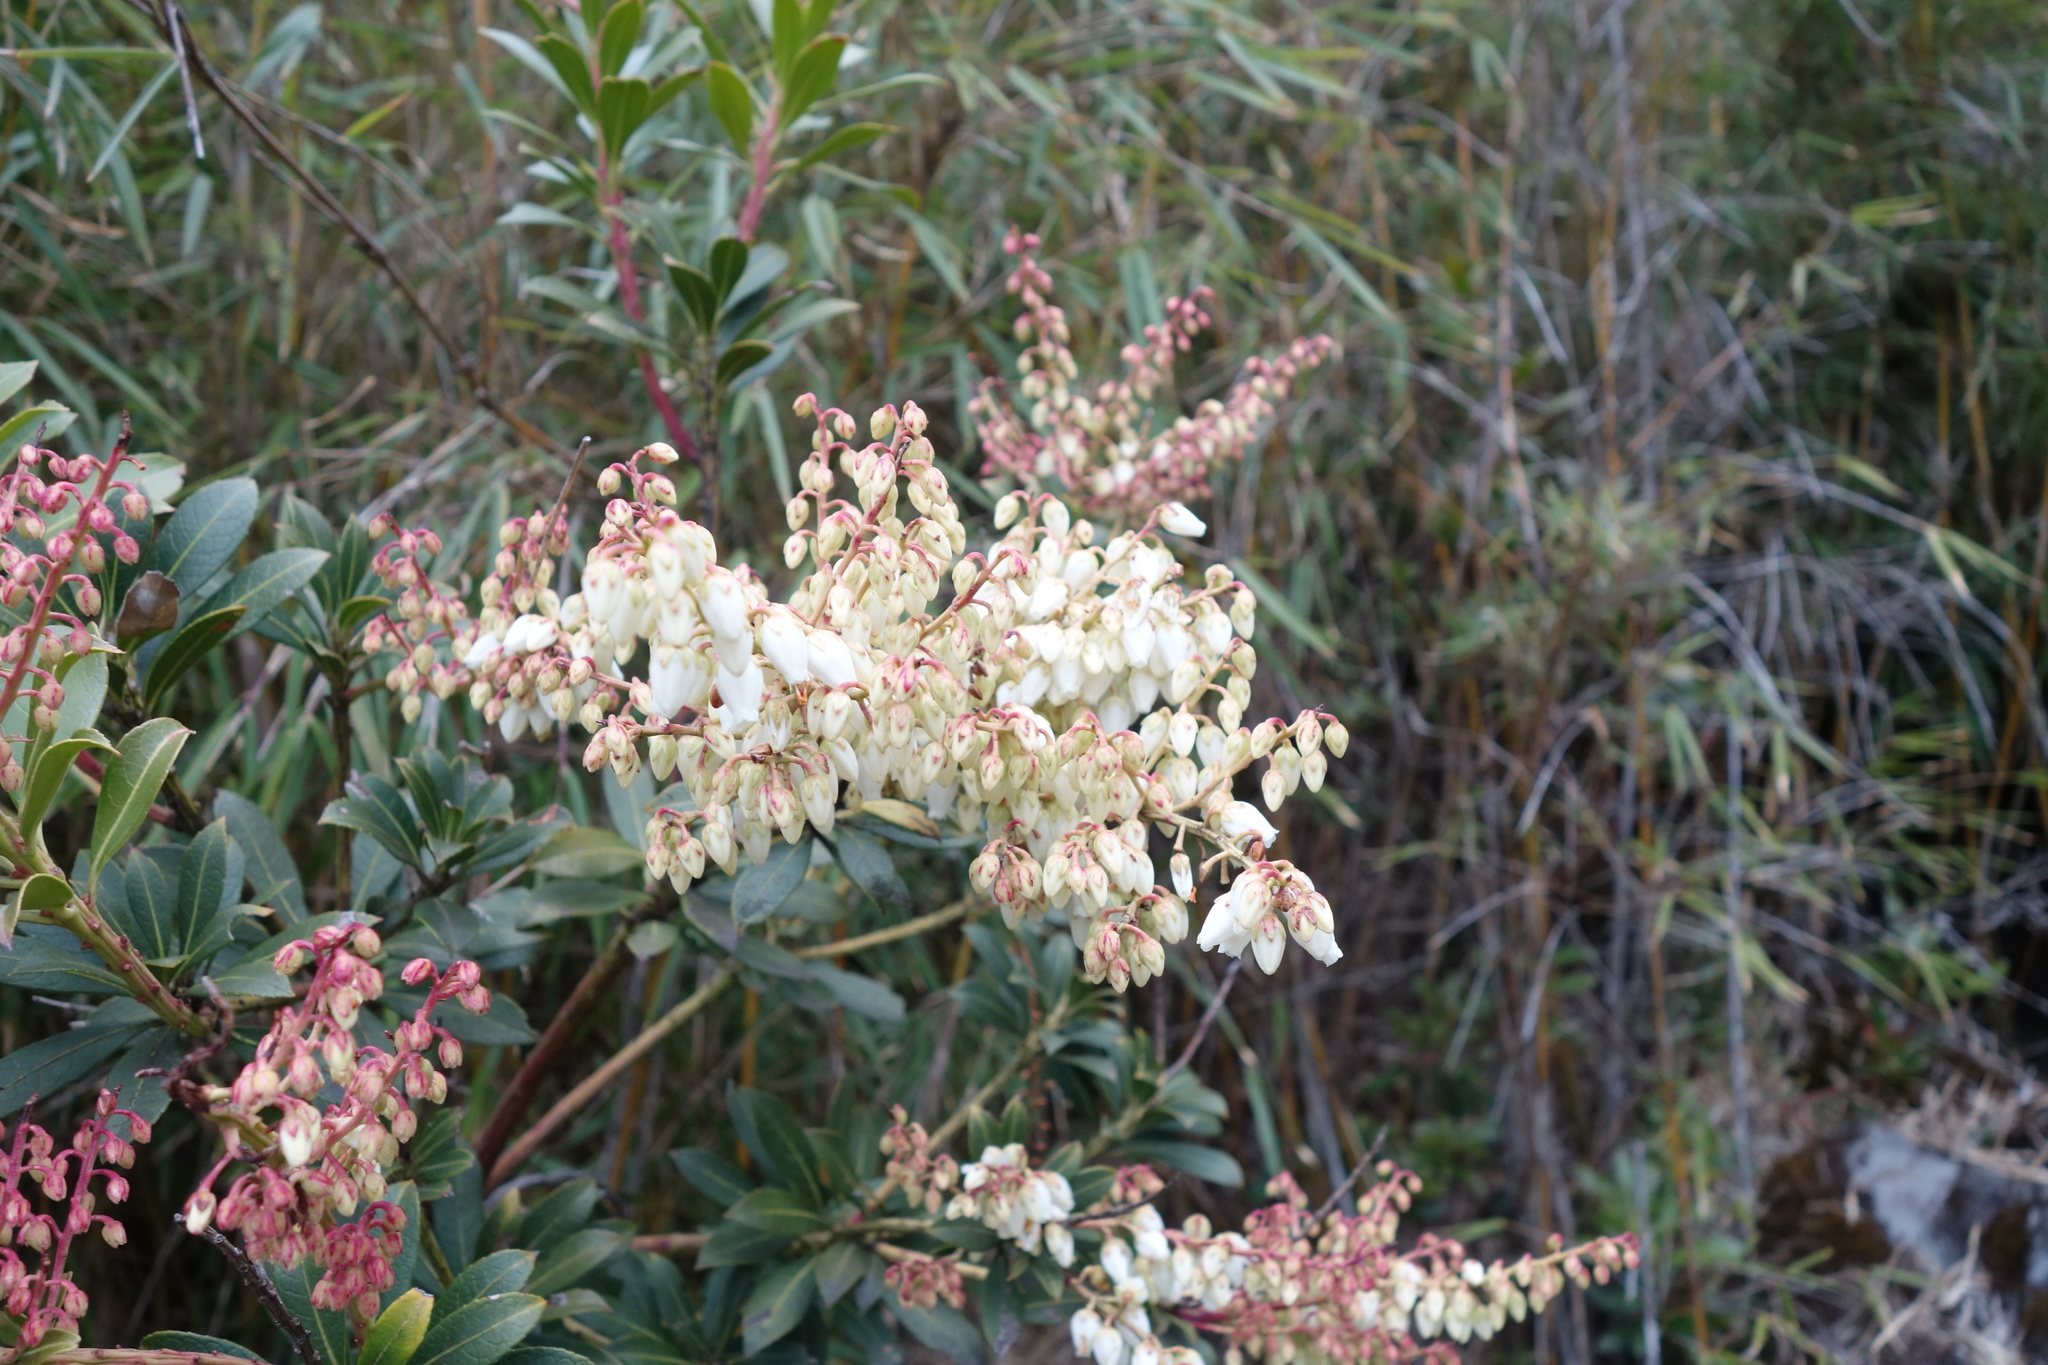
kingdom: Plantae
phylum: Tracheophyta
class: Magnoliopsida
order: Ericales
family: Ericaceae
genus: Pieris
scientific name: Pieris japonica
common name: Japanese pieris
